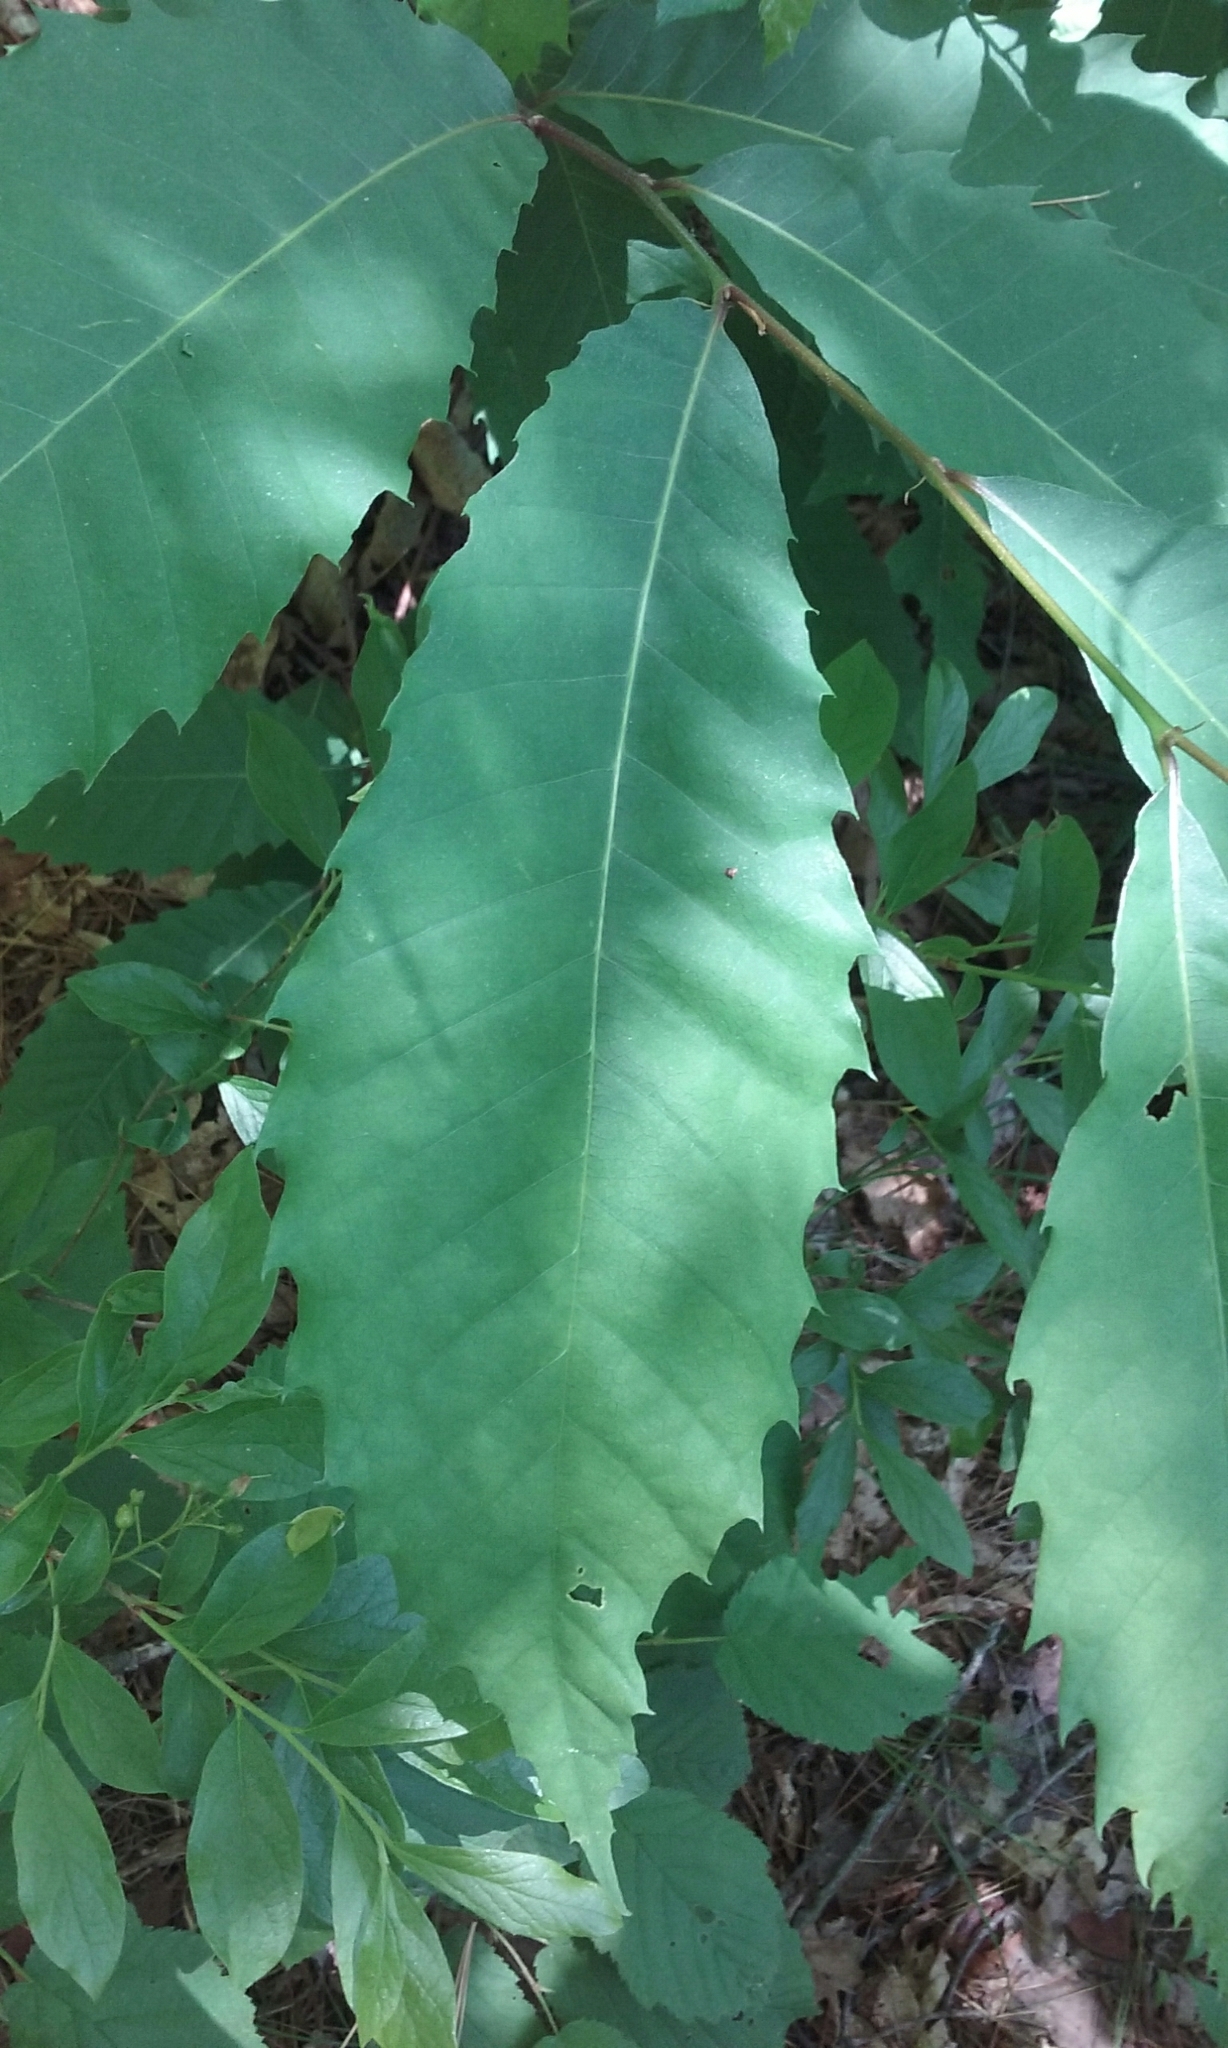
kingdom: Plantae
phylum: Tracheophyta
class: Magnoliopsida
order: Fagales
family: Fagaceae
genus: Castanea
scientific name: Castanea dentata
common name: American chestnut
